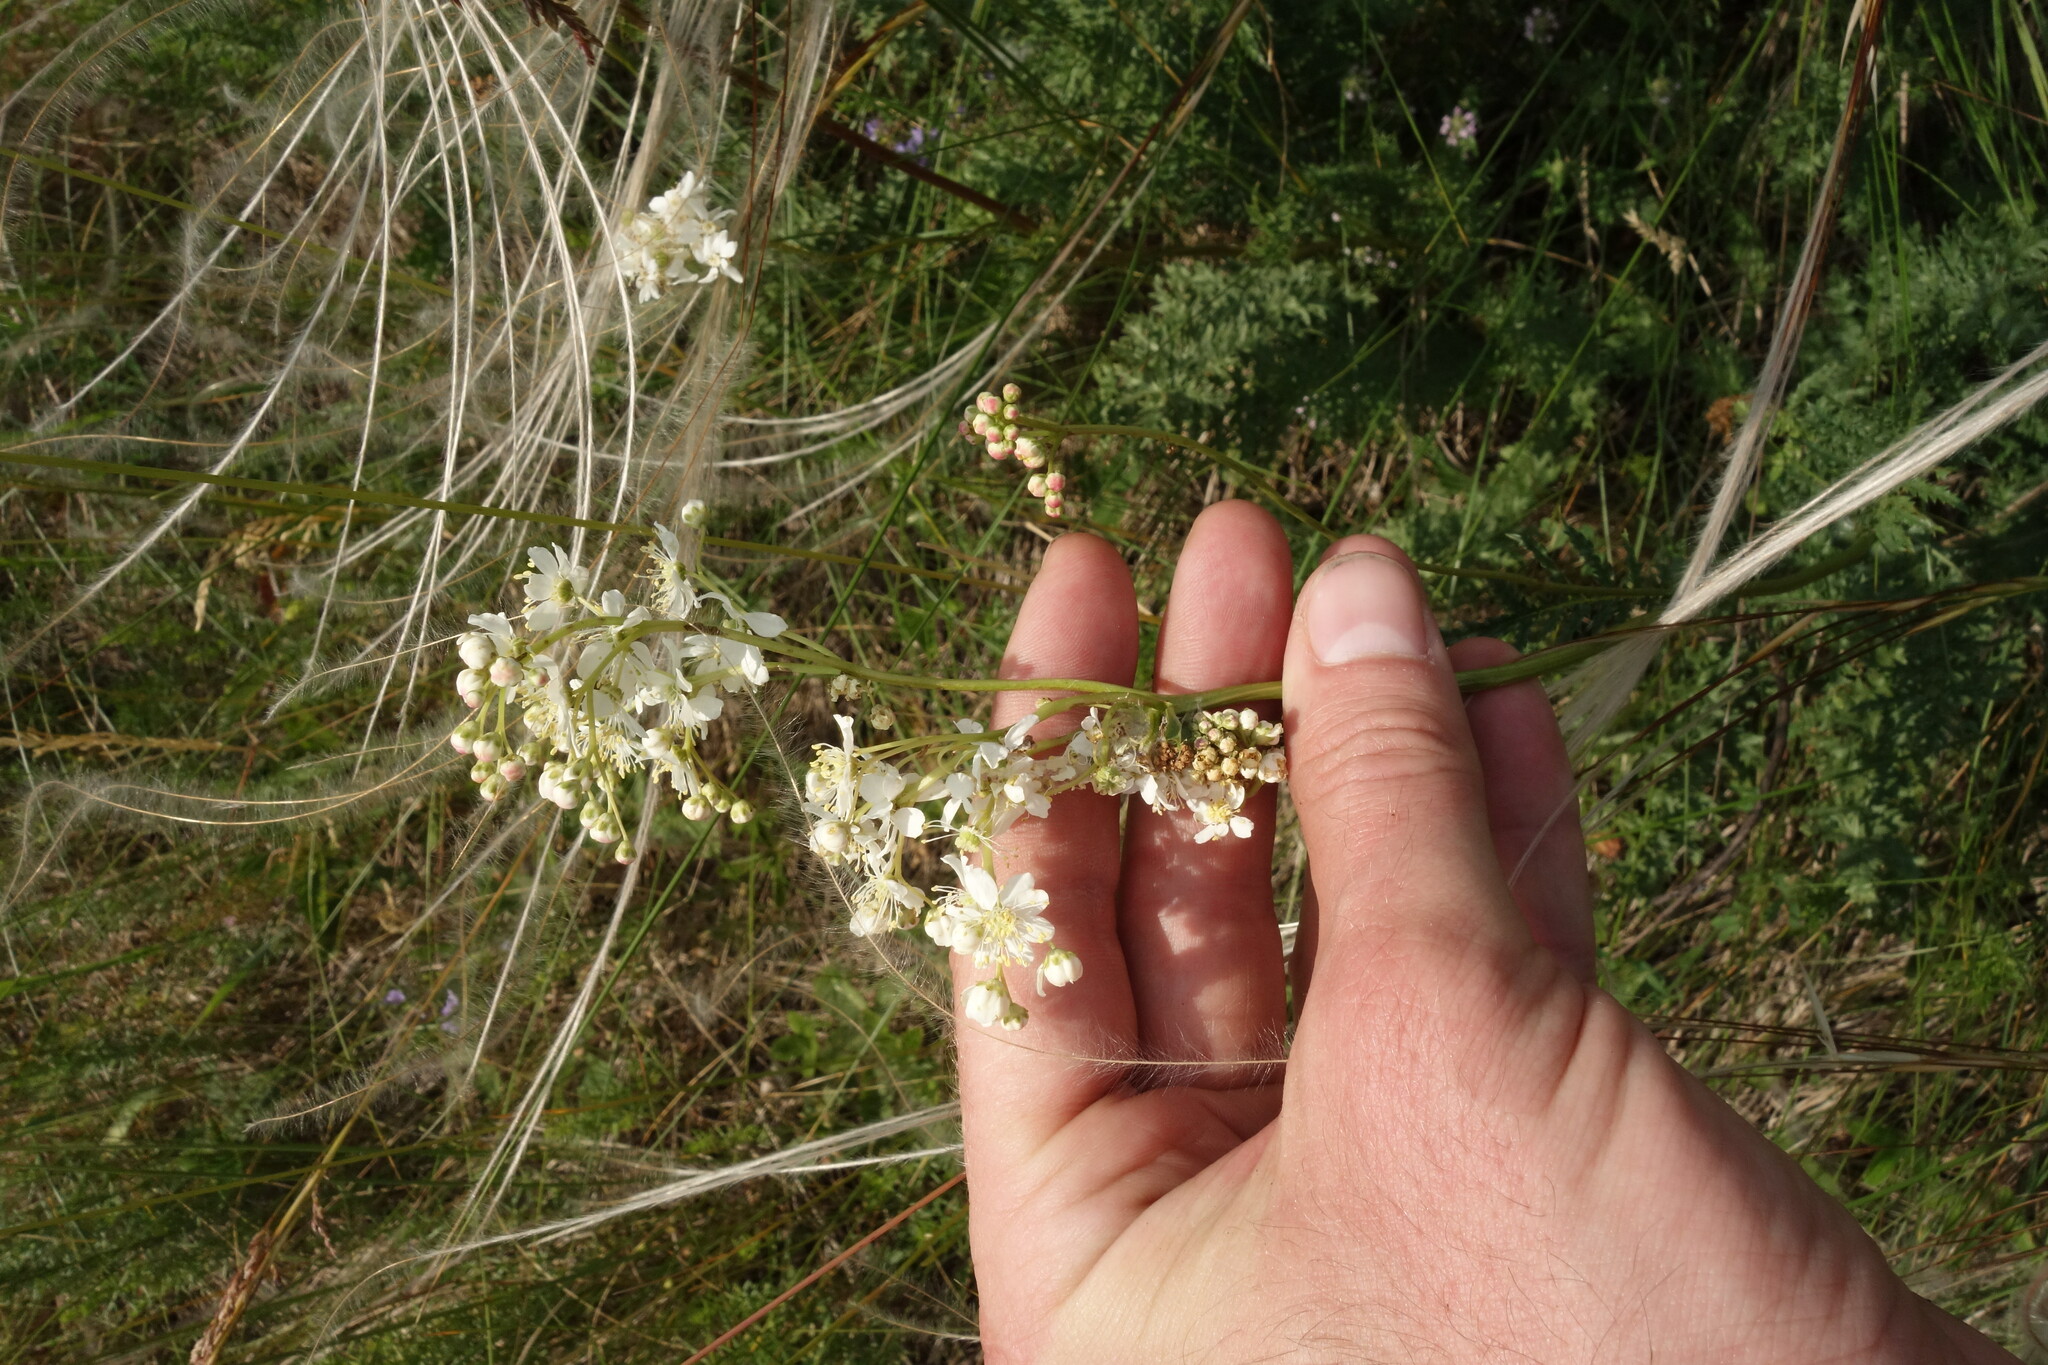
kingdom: Plantae
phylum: Tracheophyta
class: Magnoliopsida
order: Rosales
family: Rosaceae
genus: Filipendula
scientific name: Filipendula vulgaris
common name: Dropwort
